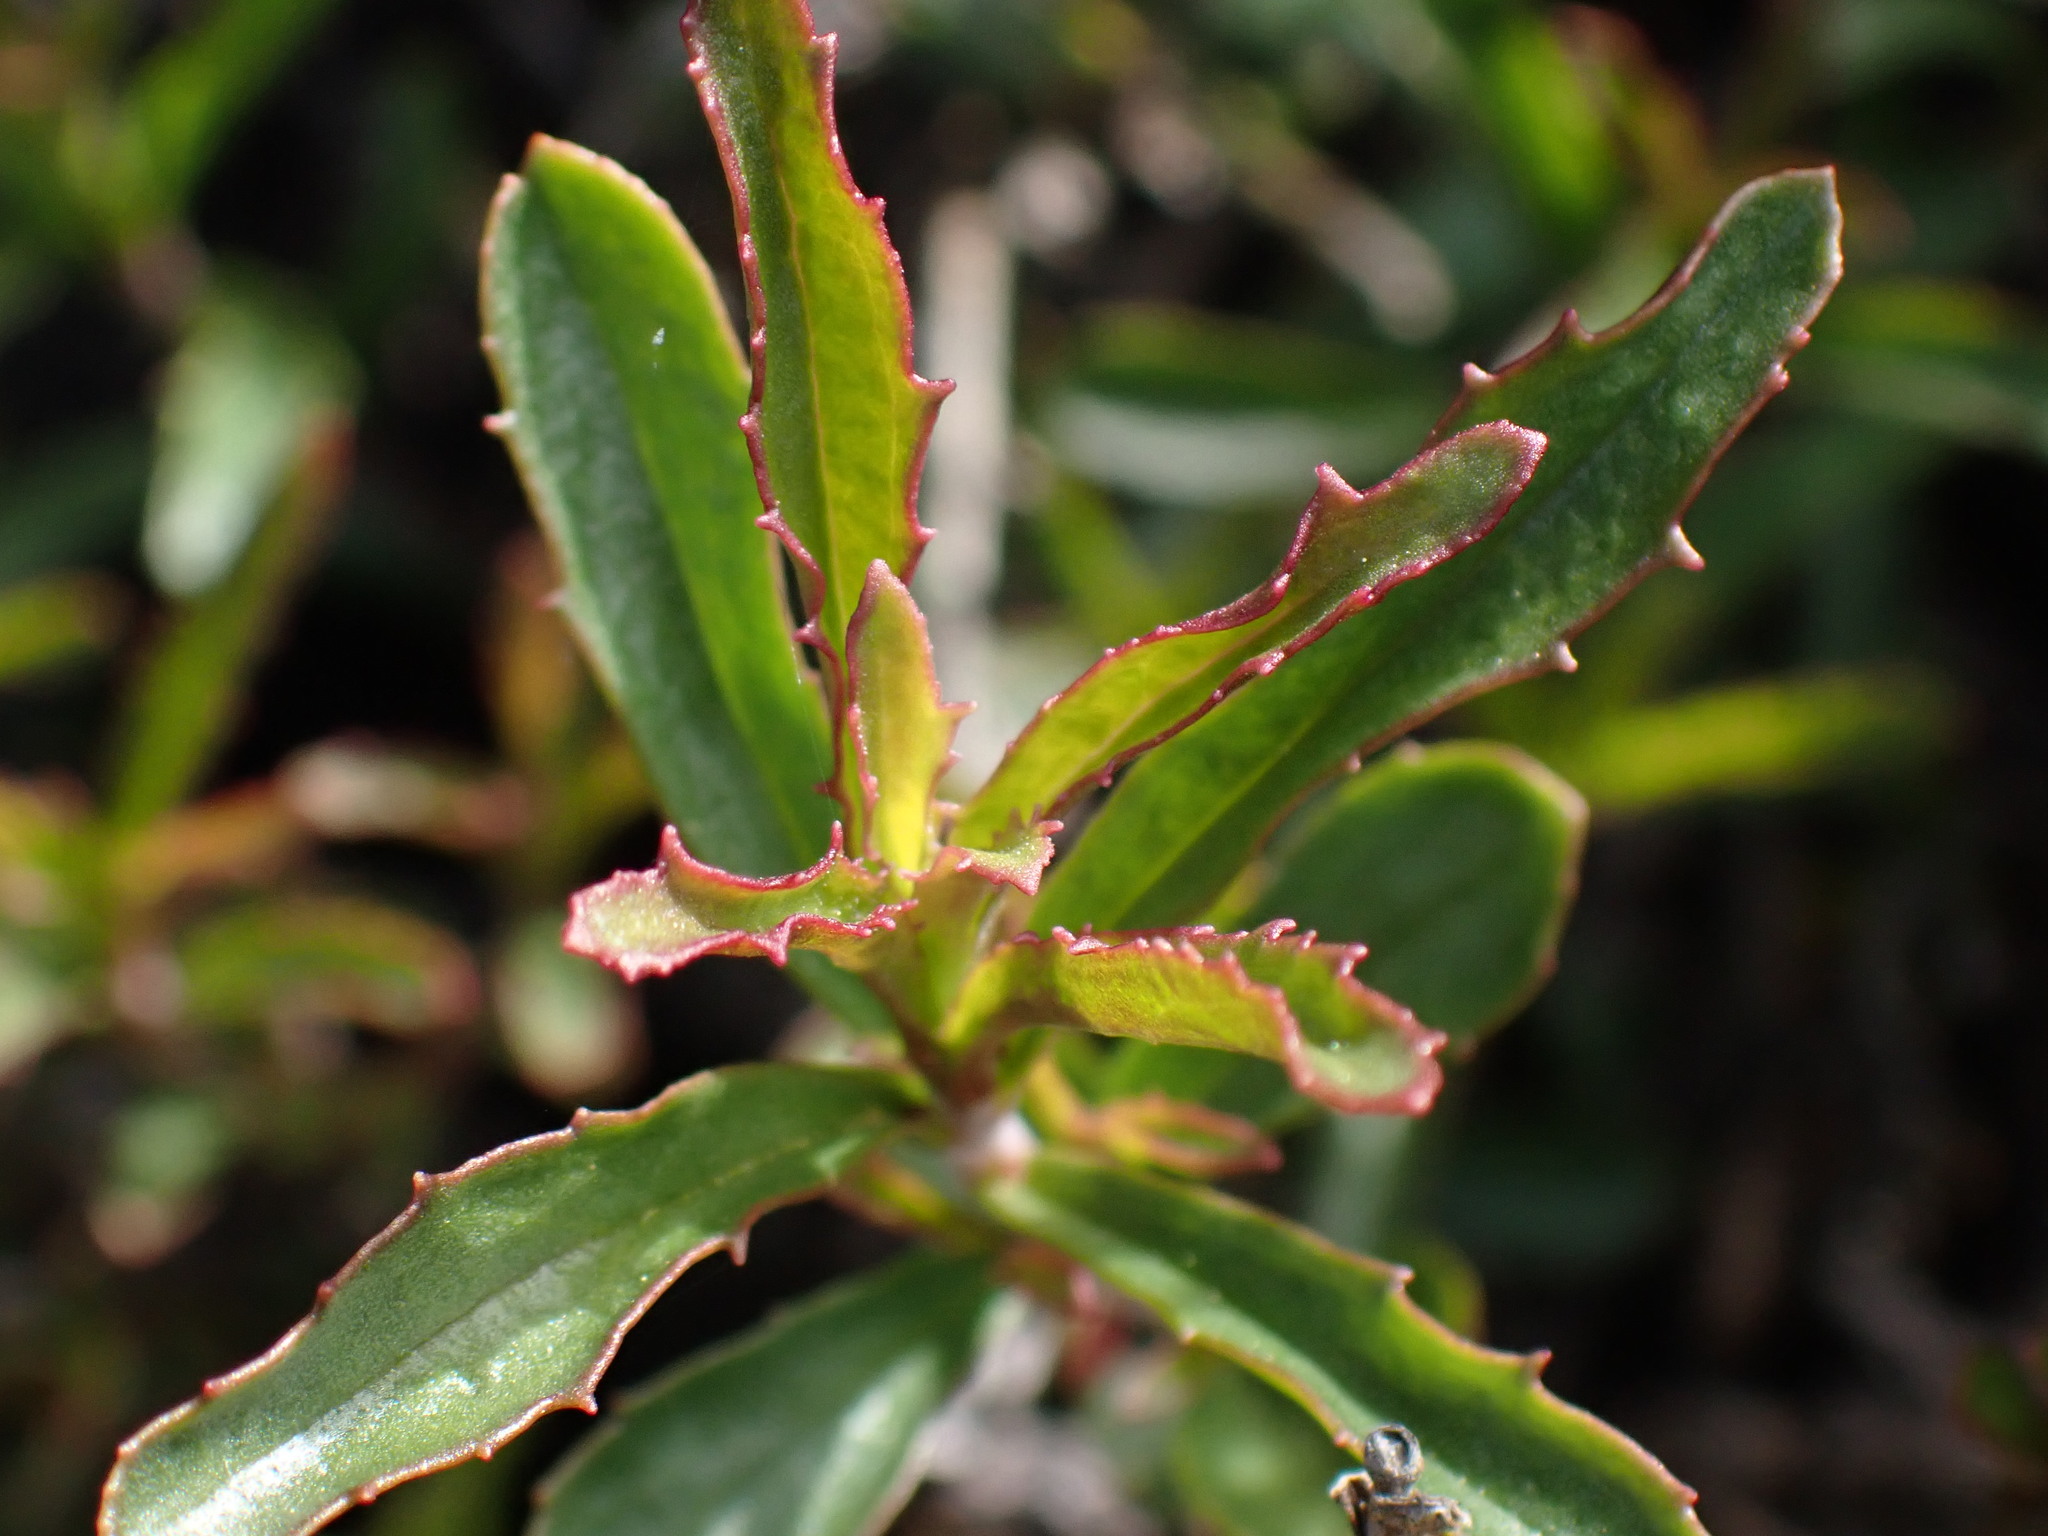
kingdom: Plantae
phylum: Tracheophyta
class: Magnoliopsida
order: Lamiales
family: Plantaginaceae
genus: Penstemon
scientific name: Penstemon fruticosus
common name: Bush penstemon
